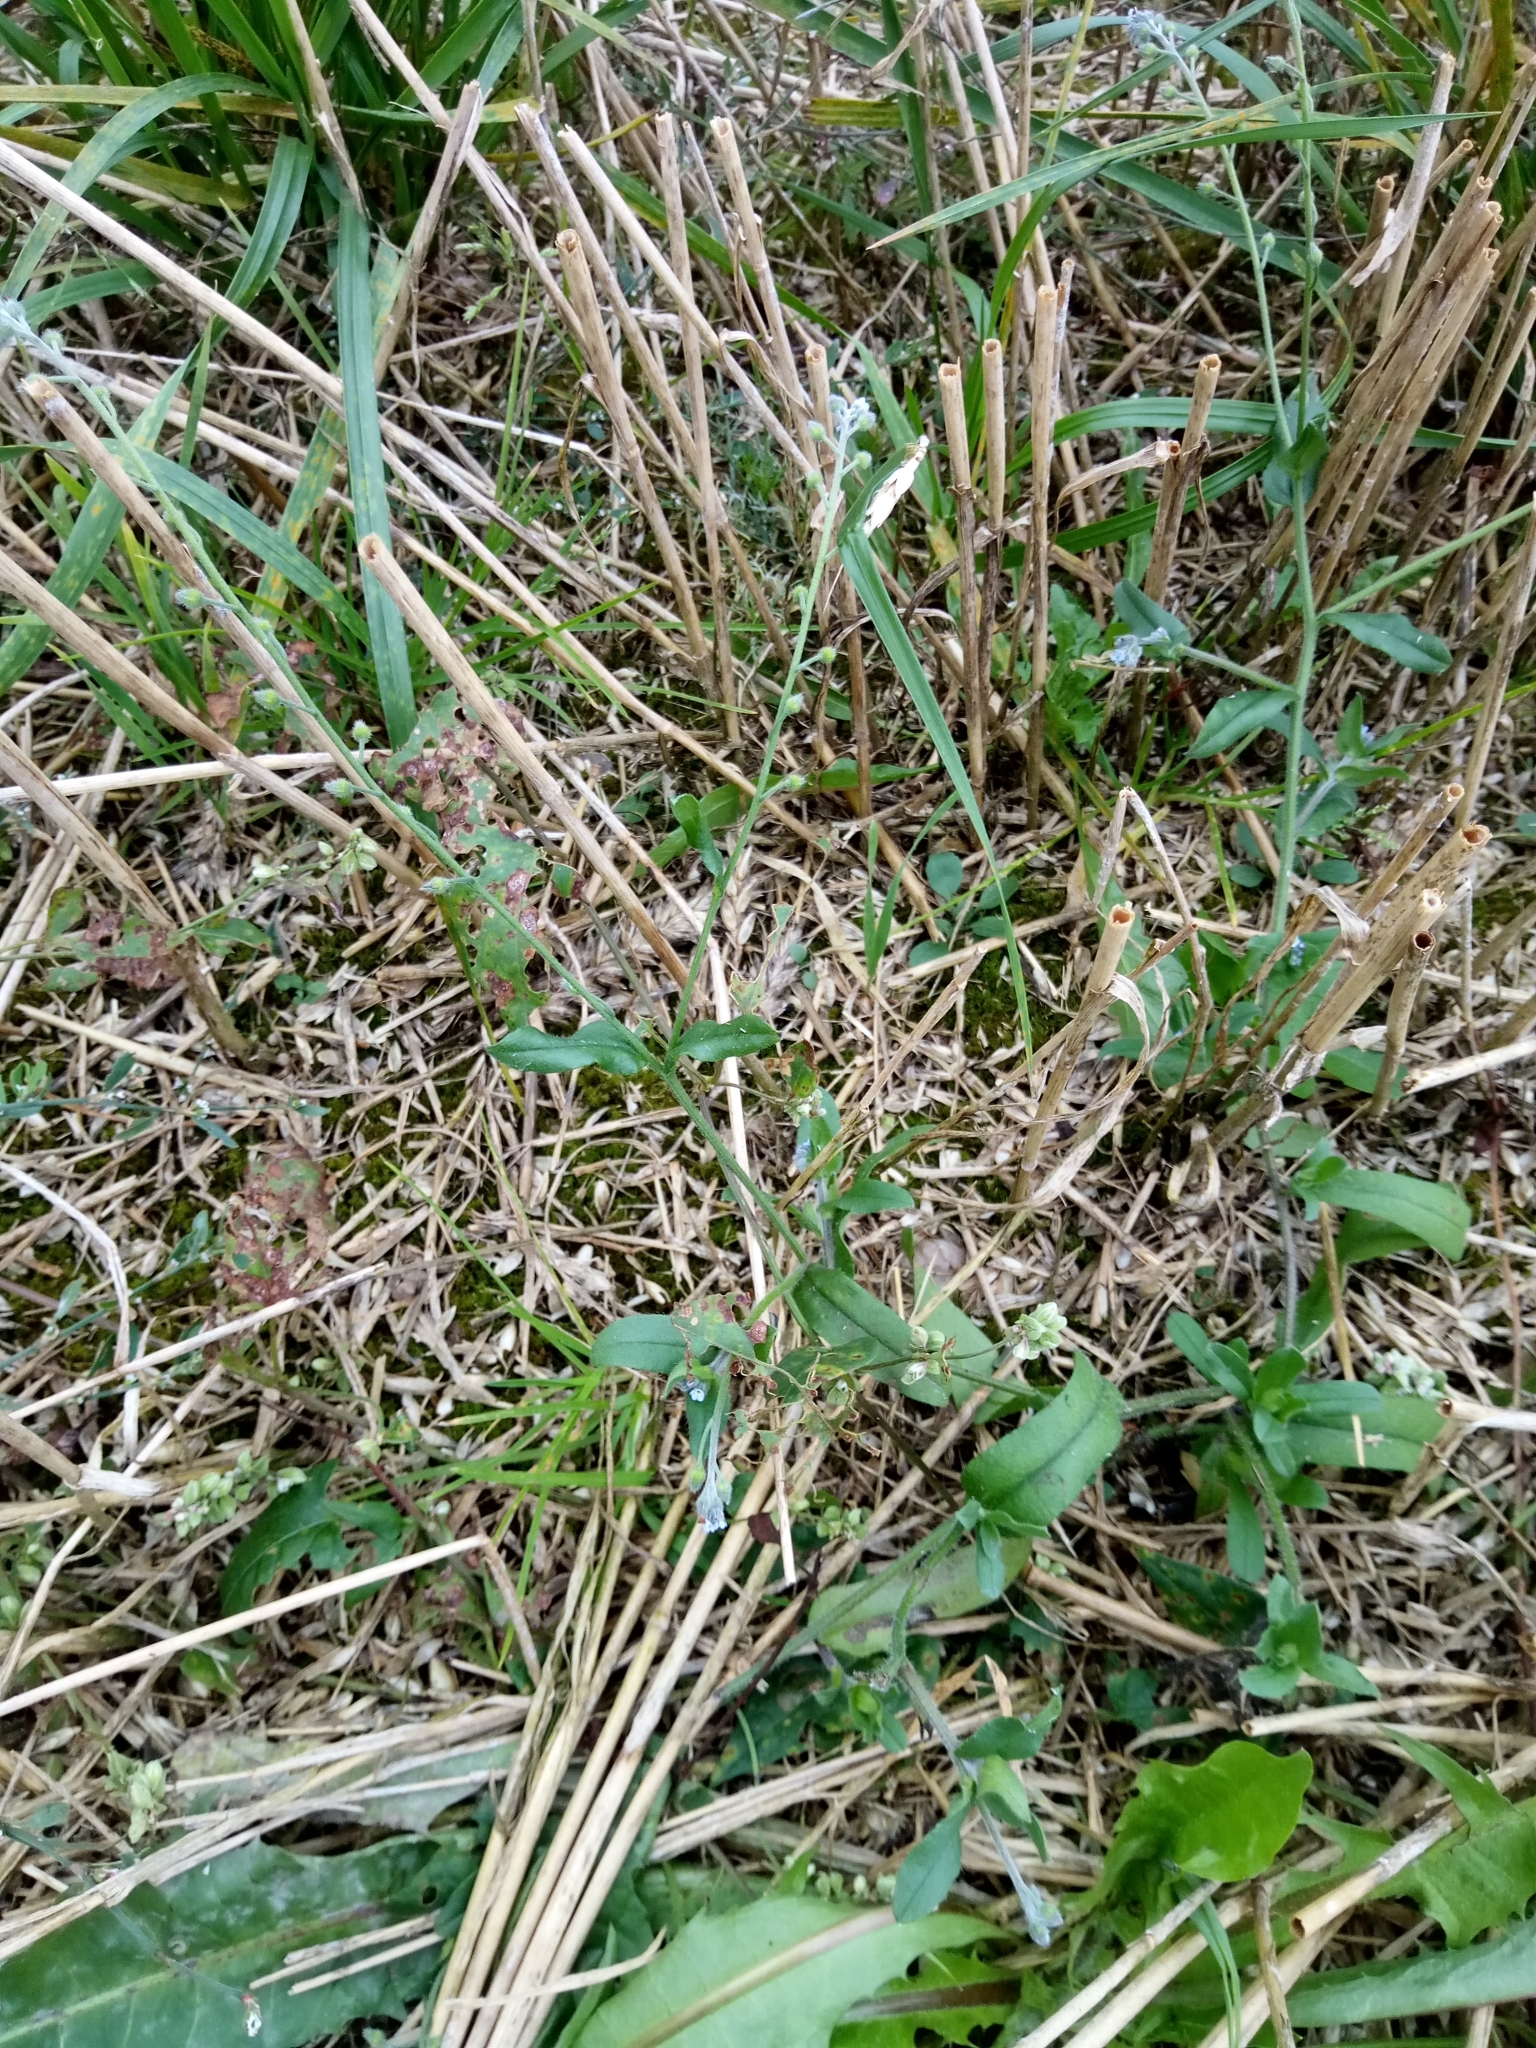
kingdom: Plantae
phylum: Tracheophyta
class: Magnoliopsida
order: Boraginales
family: Boraginaceae
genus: Myosotis
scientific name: Myosotis arvensis
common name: Field forget-me-not
